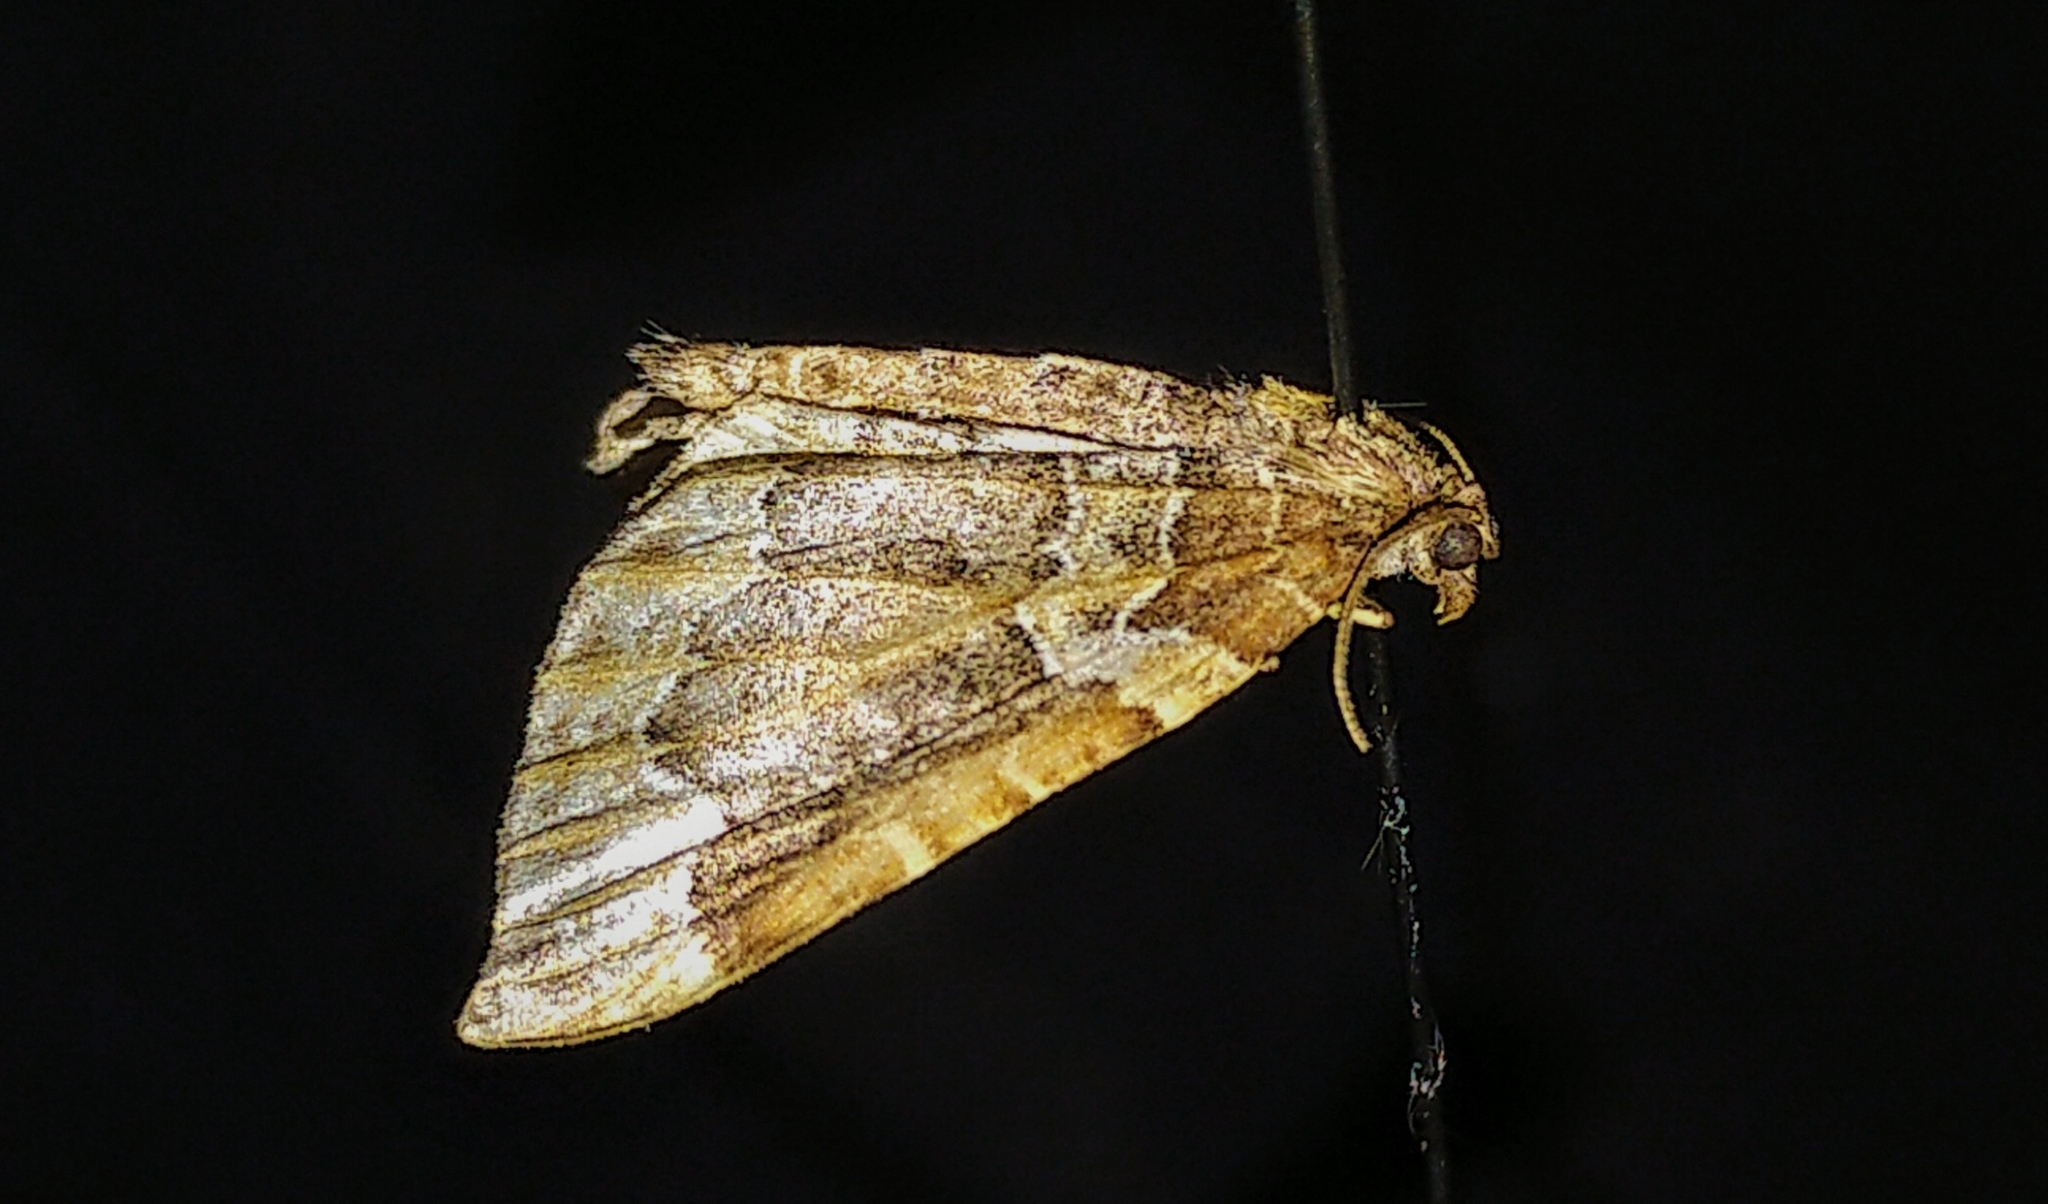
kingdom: Animalia
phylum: Arthropoda
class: Insecta
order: Lepidoptera
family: Geometridae
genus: Eulithis
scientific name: Eulithis flavibrunneata
